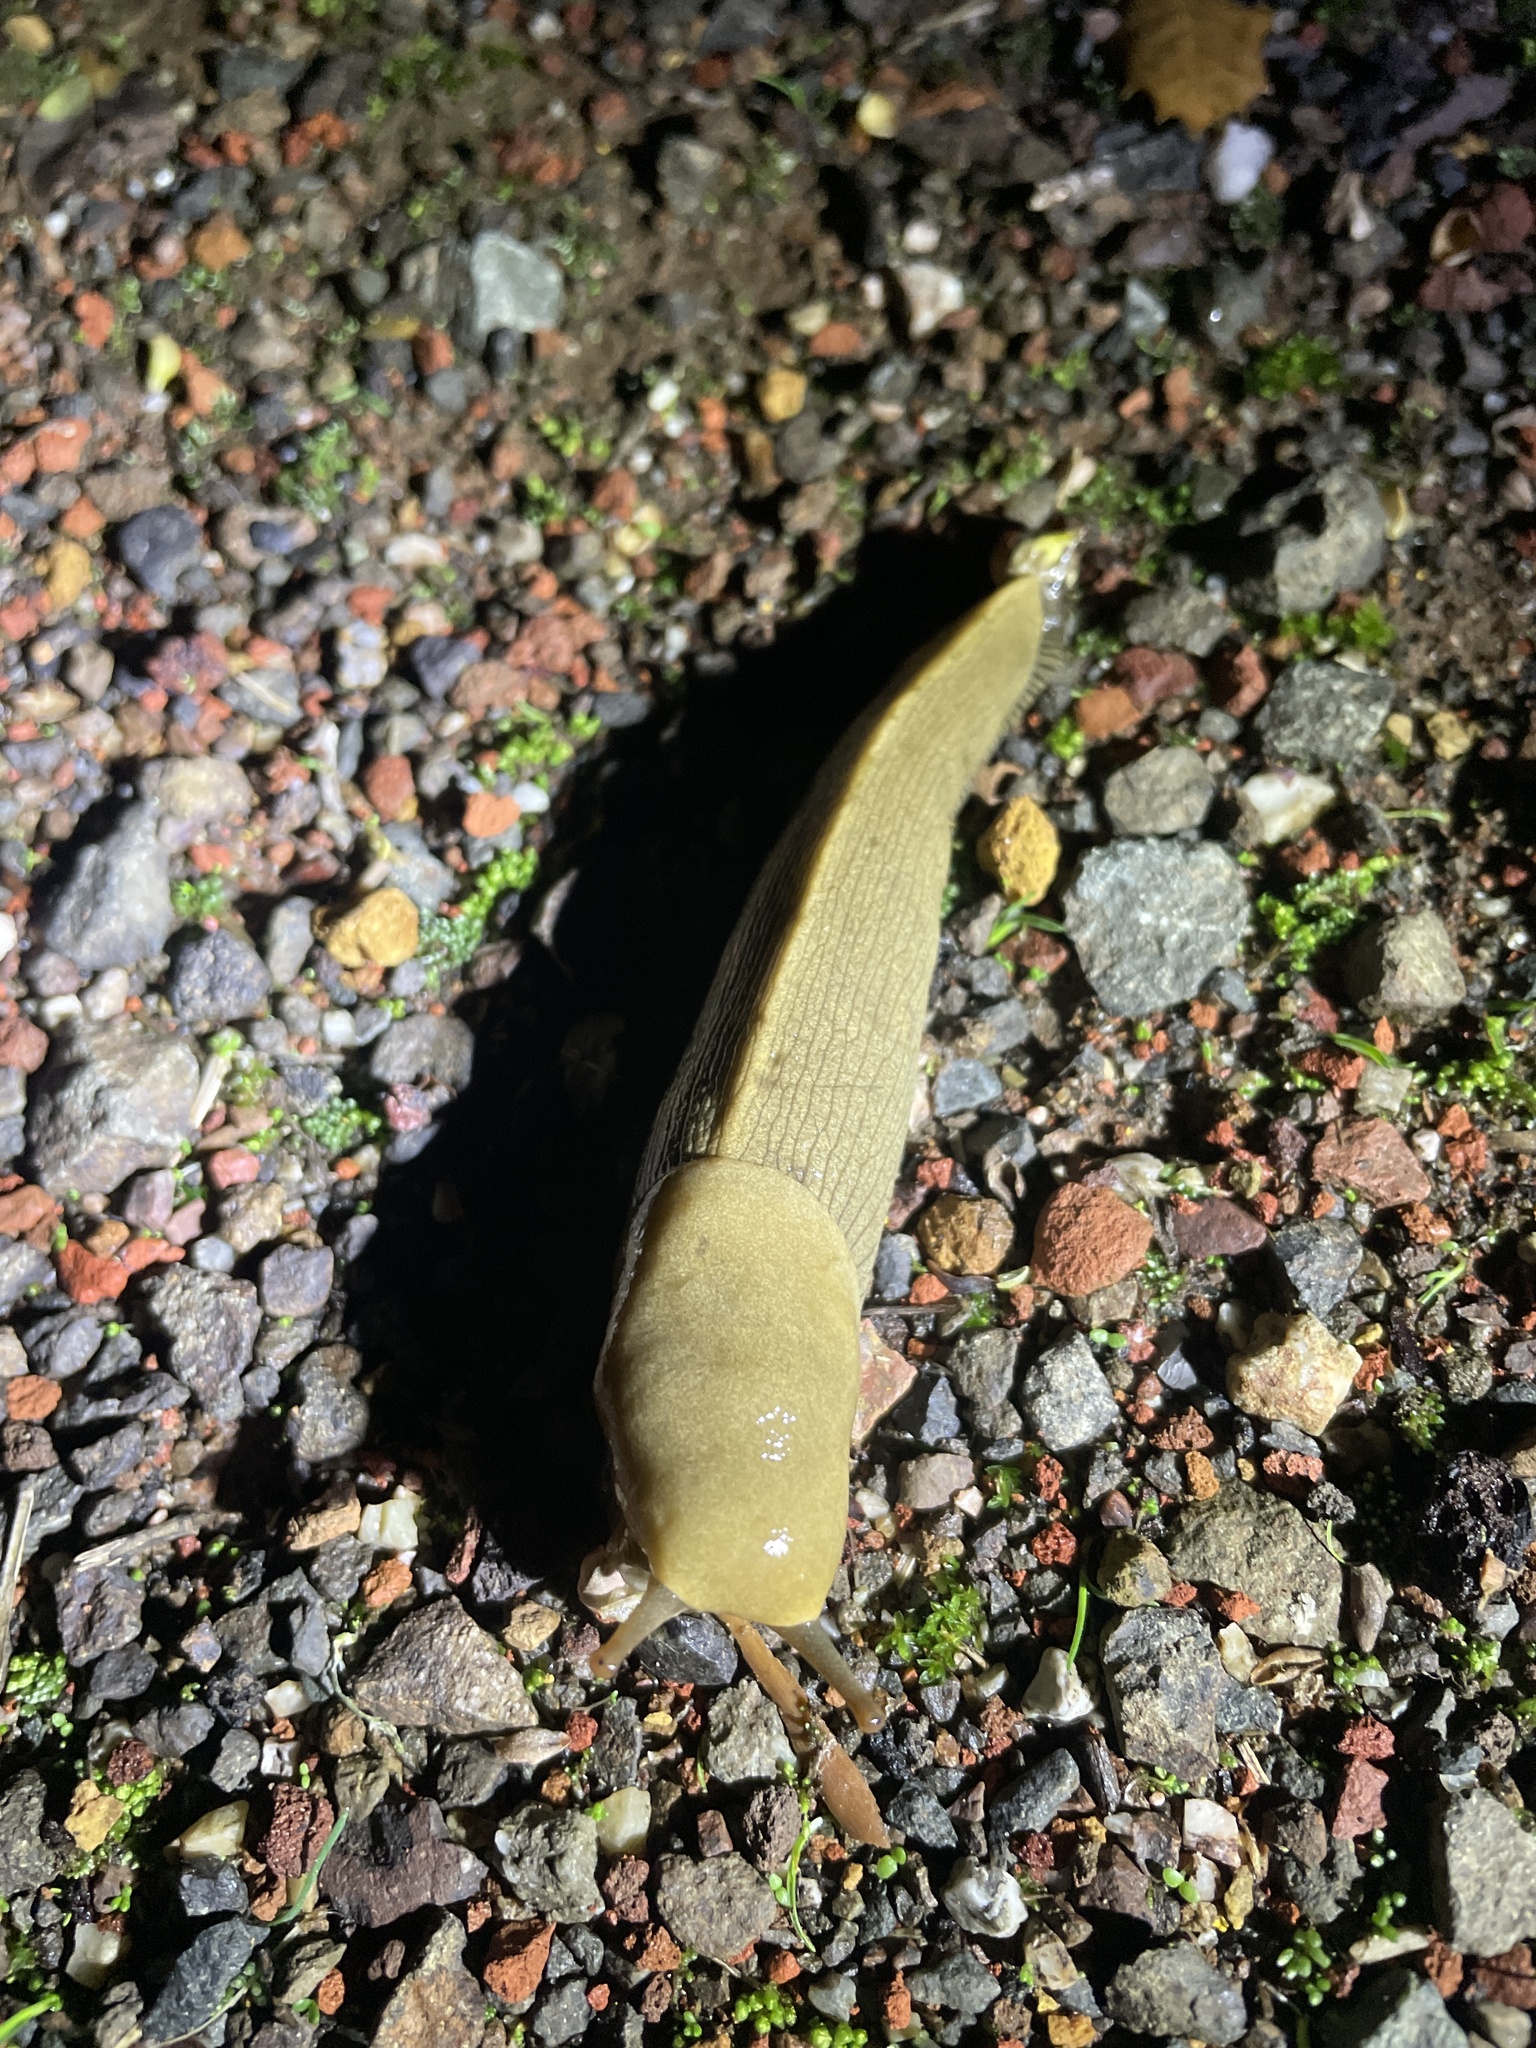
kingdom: Animalia
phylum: Mollusca
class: Gastropoda
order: Stylommatophora
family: Ariolimacidae
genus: Ariolimax
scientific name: Ariolimax buttoni
